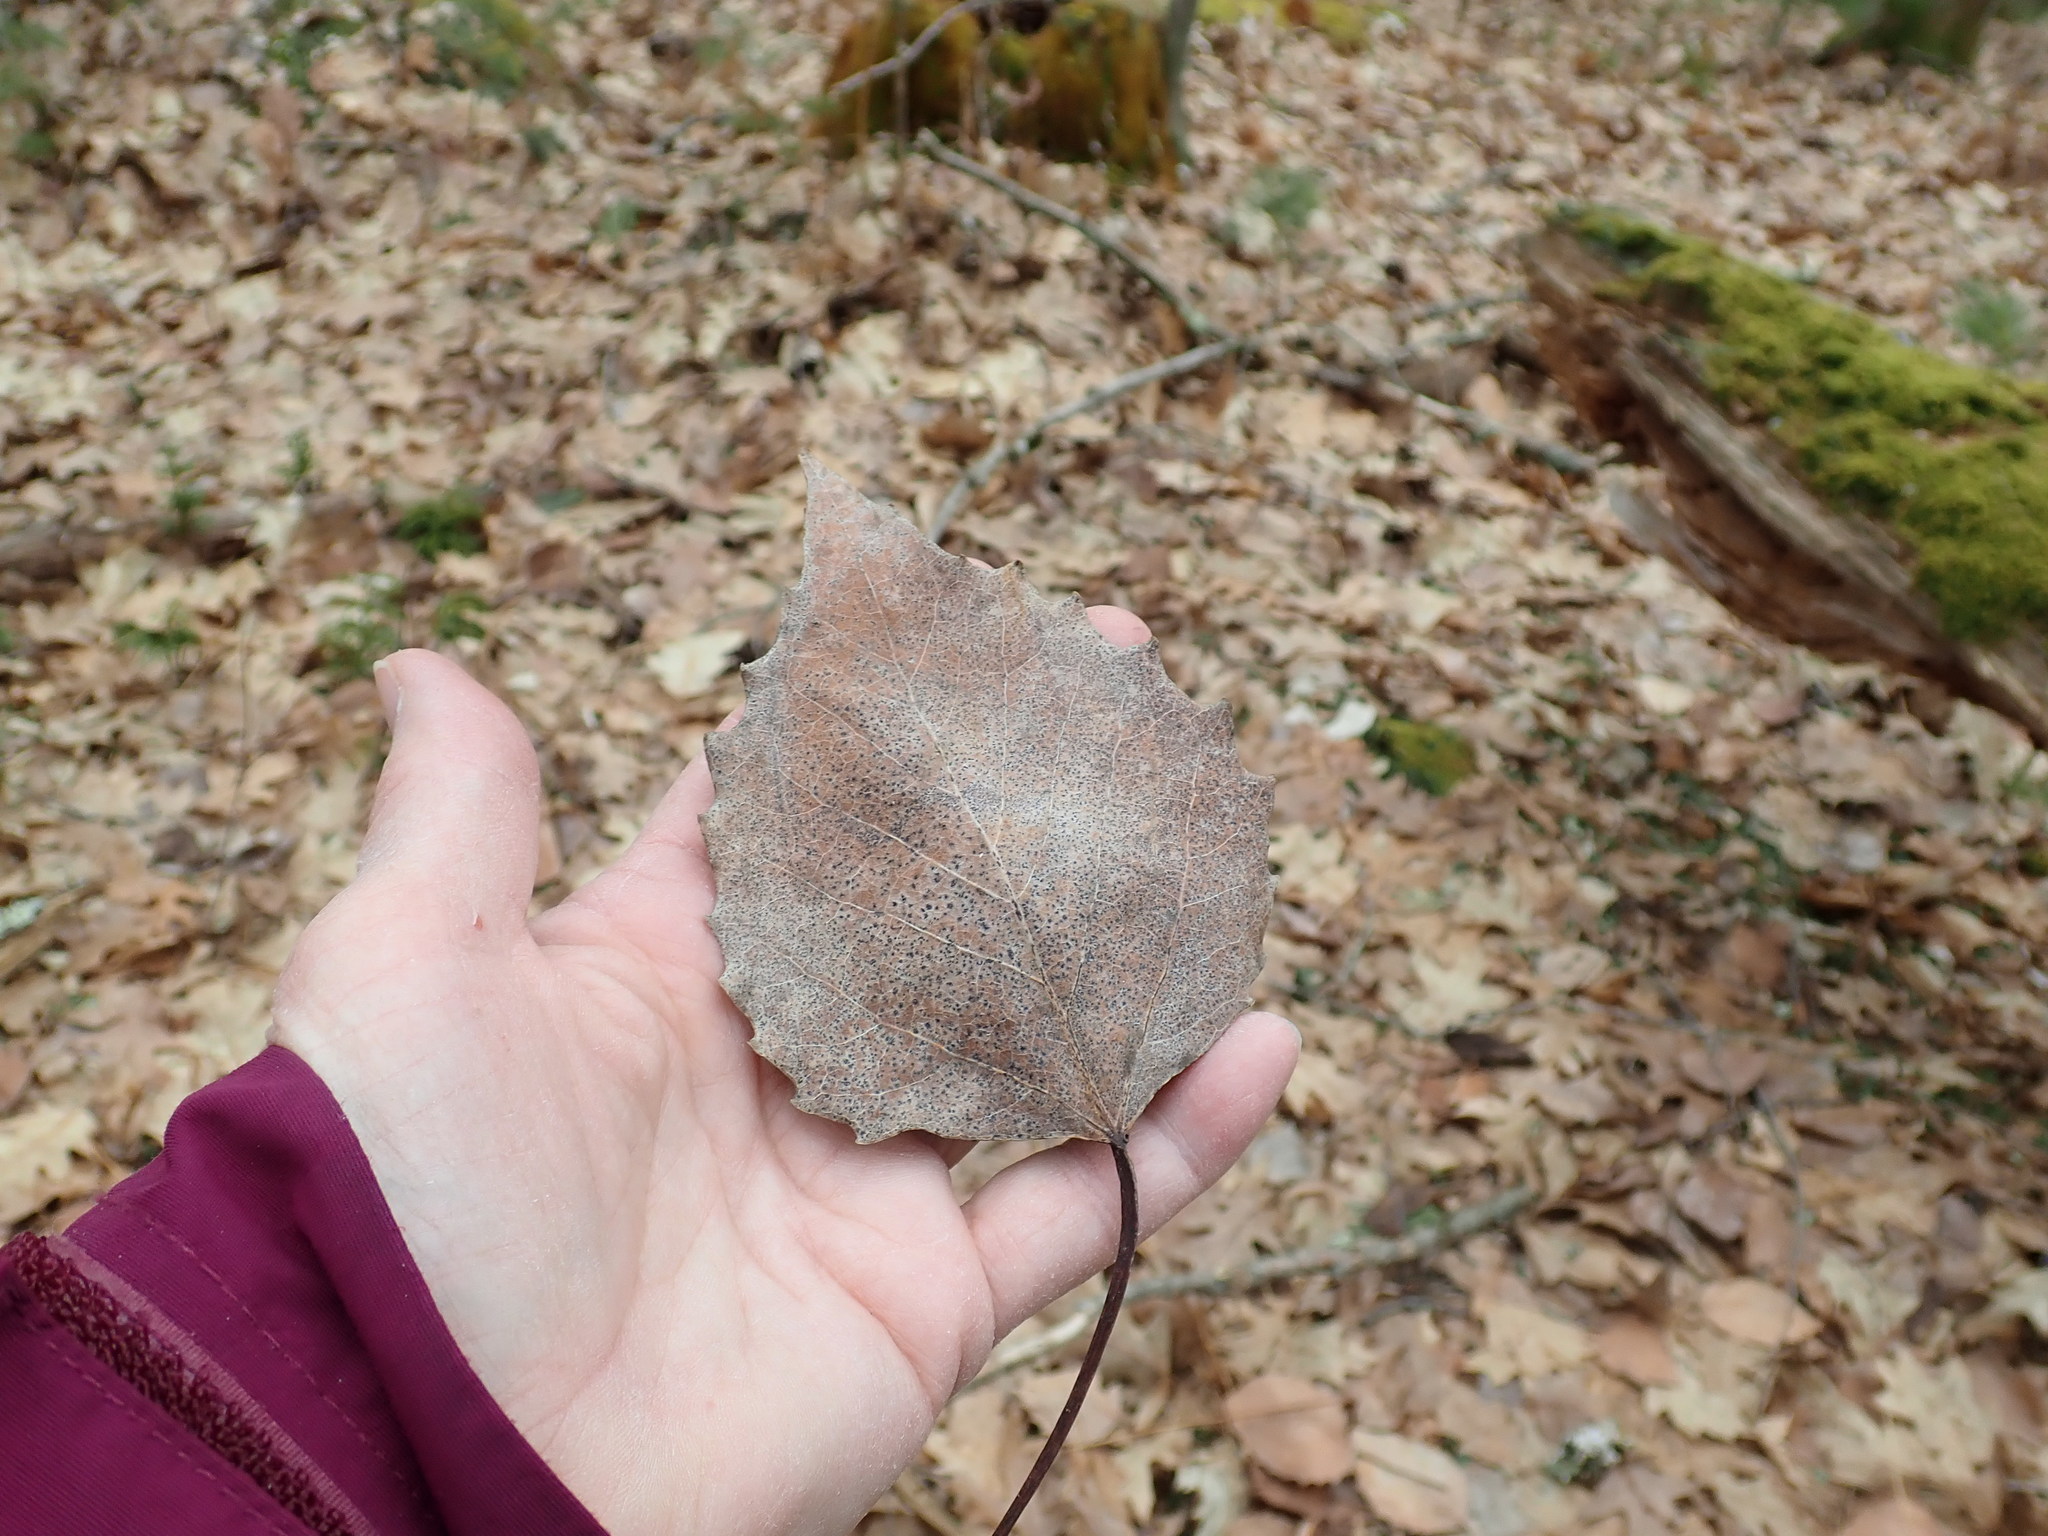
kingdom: Plantae
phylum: Tracheophyta
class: Magnoliopsida
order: Malpighiales
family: Salicaceae
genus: Populus
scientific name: Populus grandidentata
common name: Bigtooth aspen
